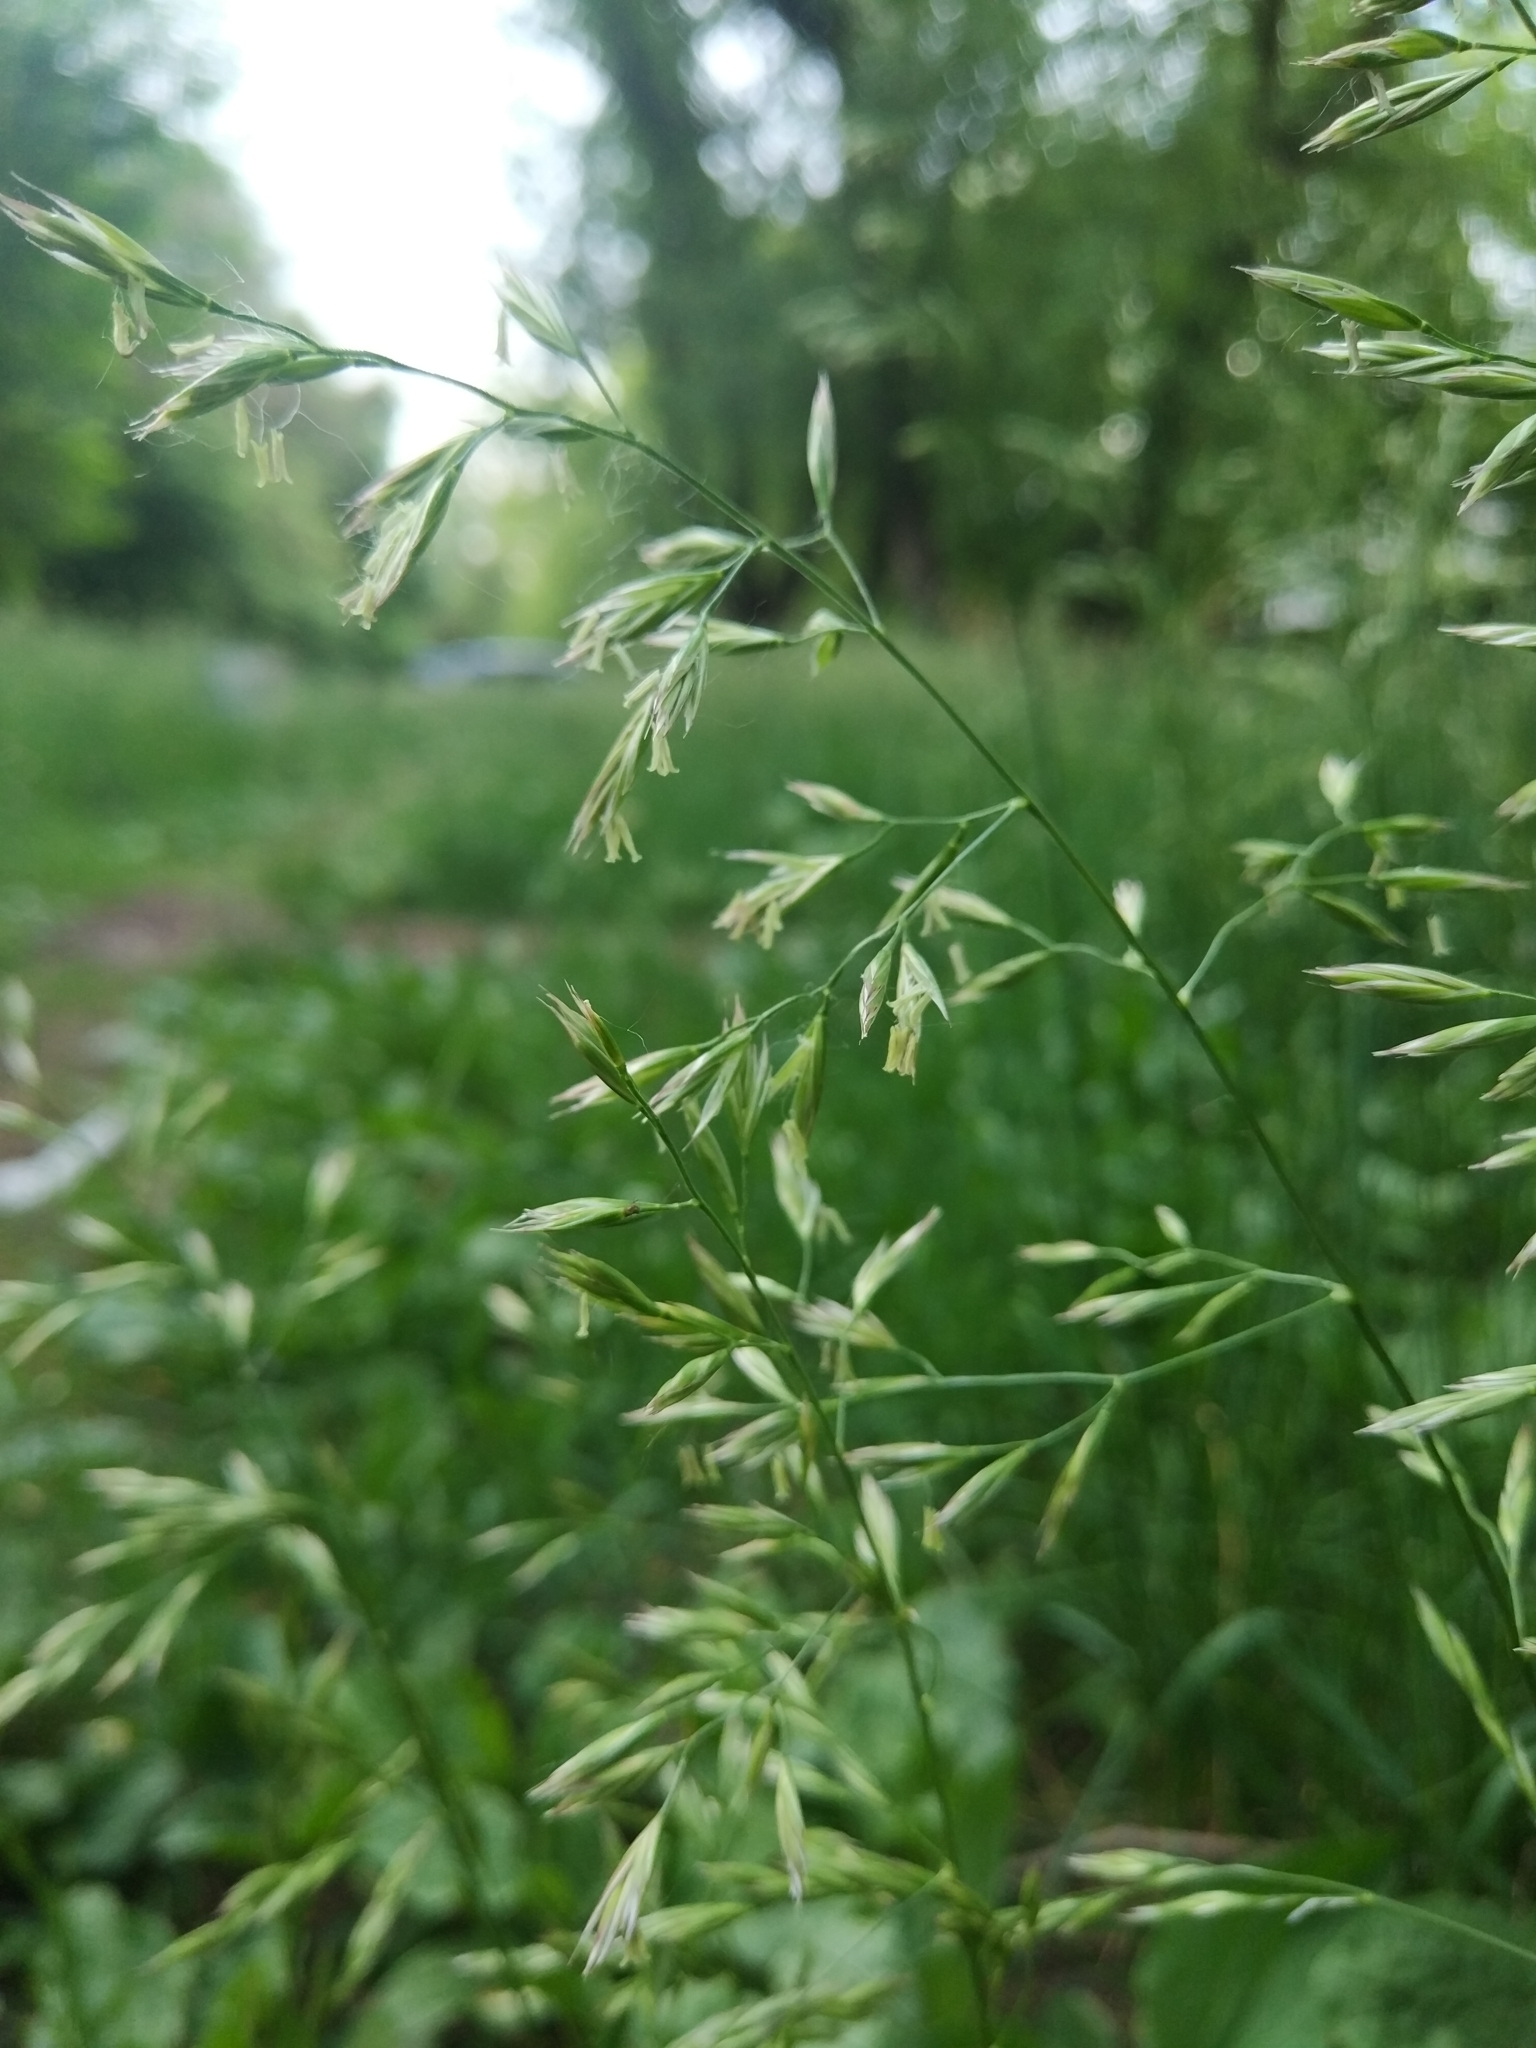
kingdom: Plantae
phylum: Tracheophyta
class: Liliopsida
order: Poales
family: Poaceae
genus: Lolium
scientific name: Lolium pratense
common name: Dover grass
